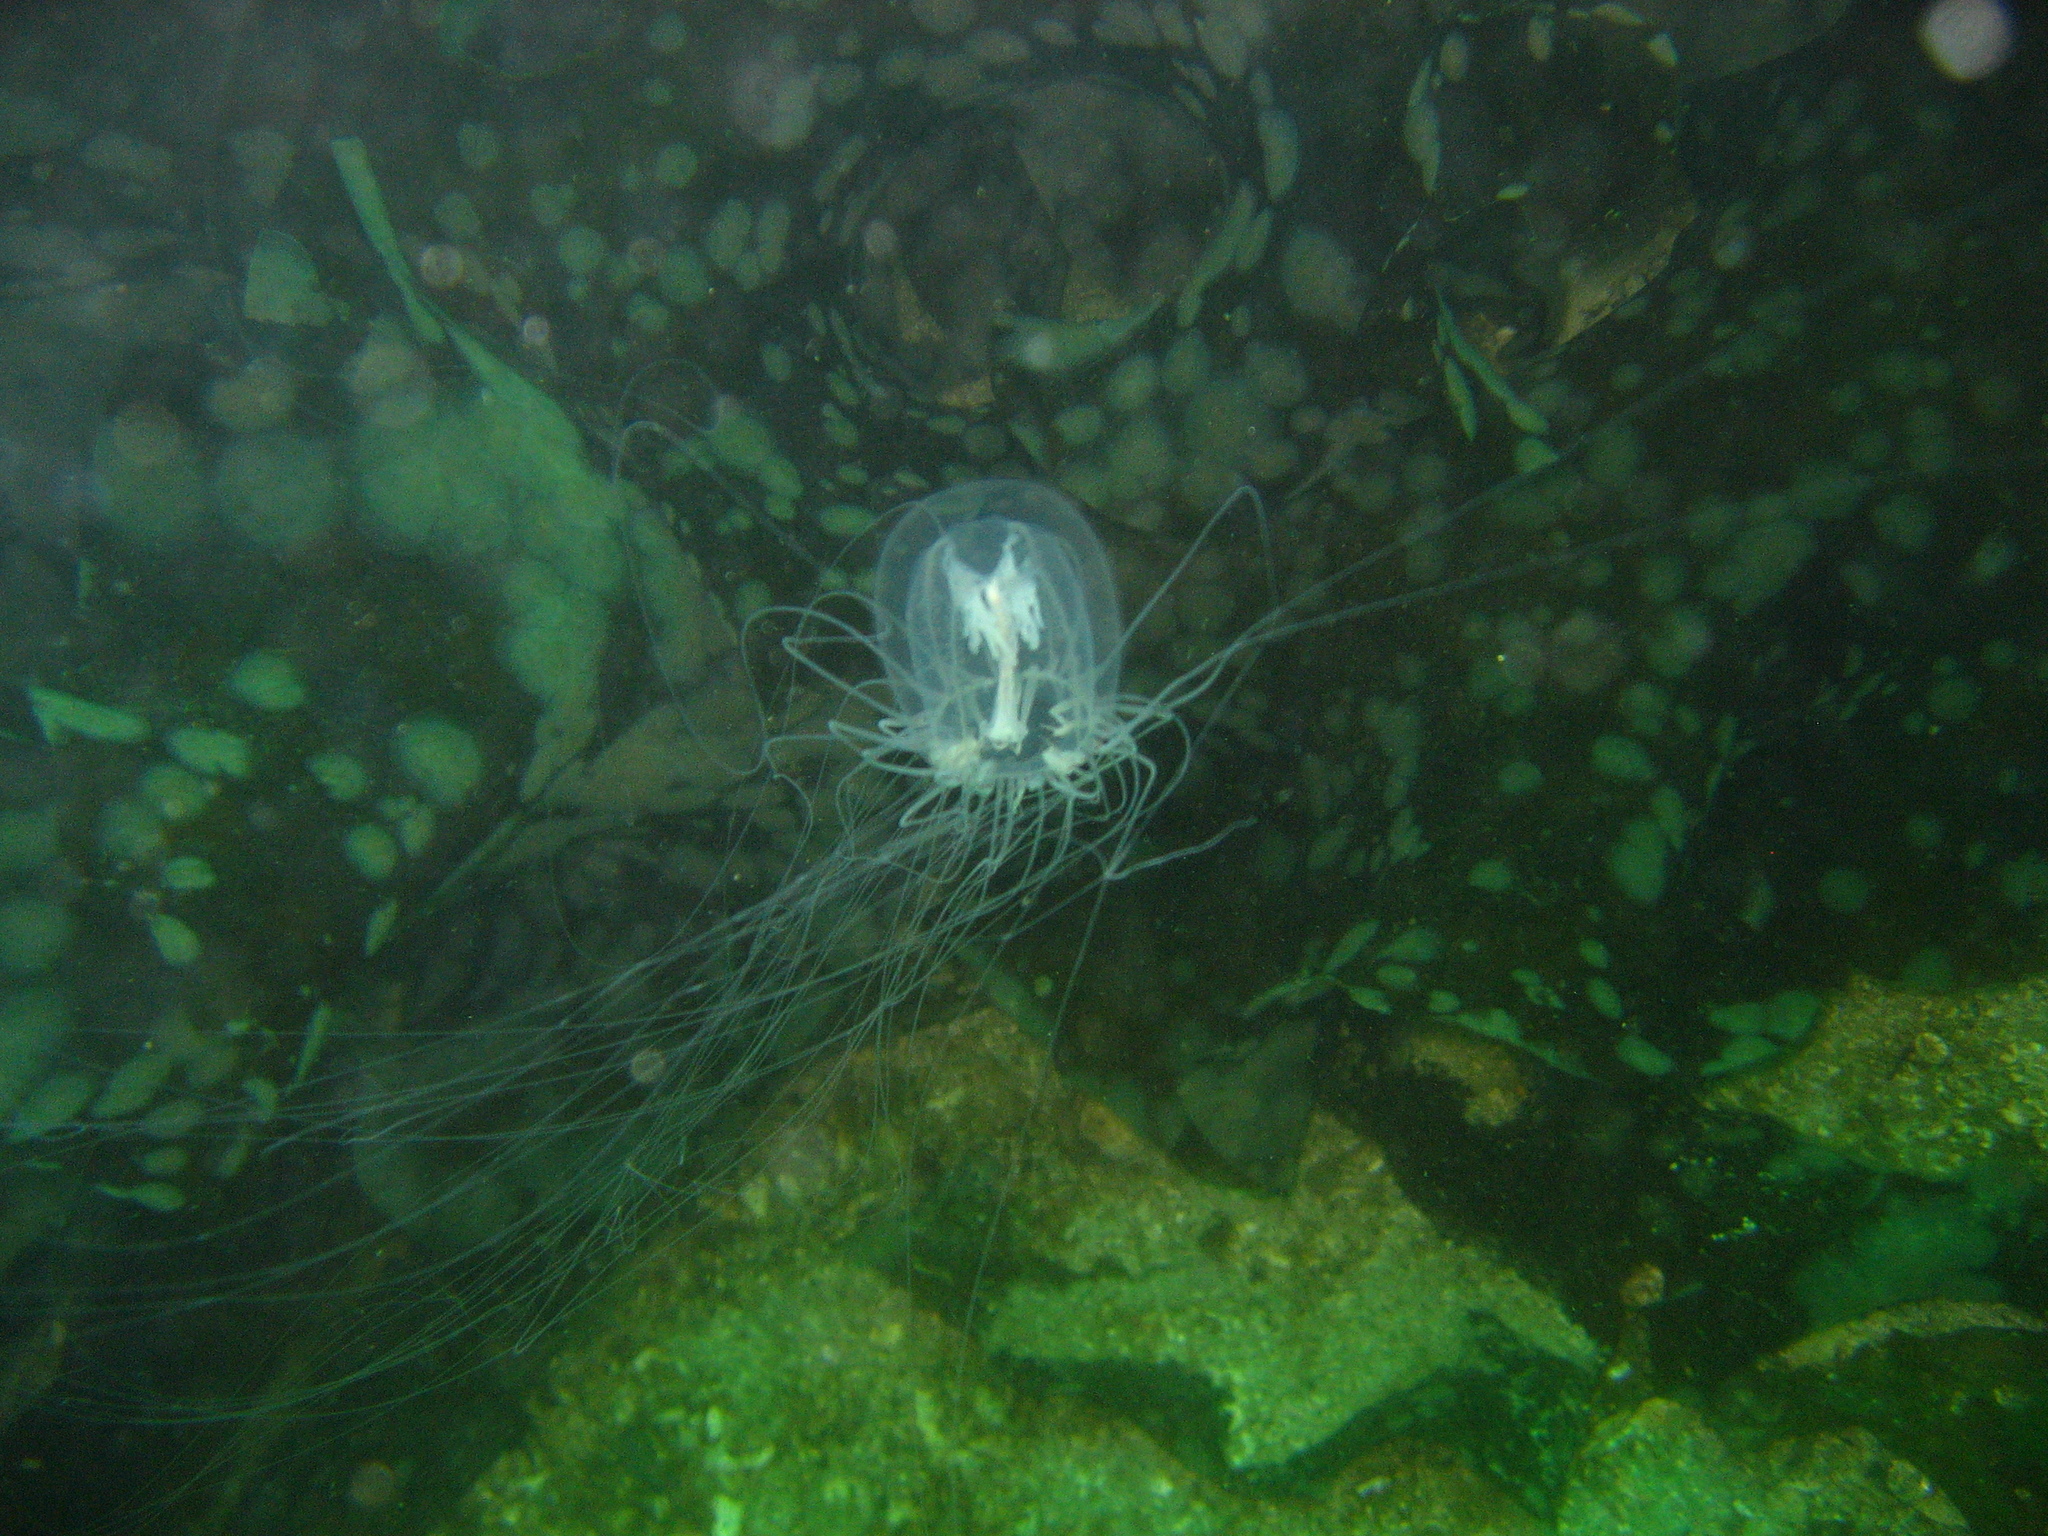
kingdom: Animalia
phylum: Cnidaria
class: Hydrozoa
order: Anthoathecata
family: Corynidae
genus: Polyorchis
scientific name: Polyorchis penicillatus
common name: Penicillate jellyfish
